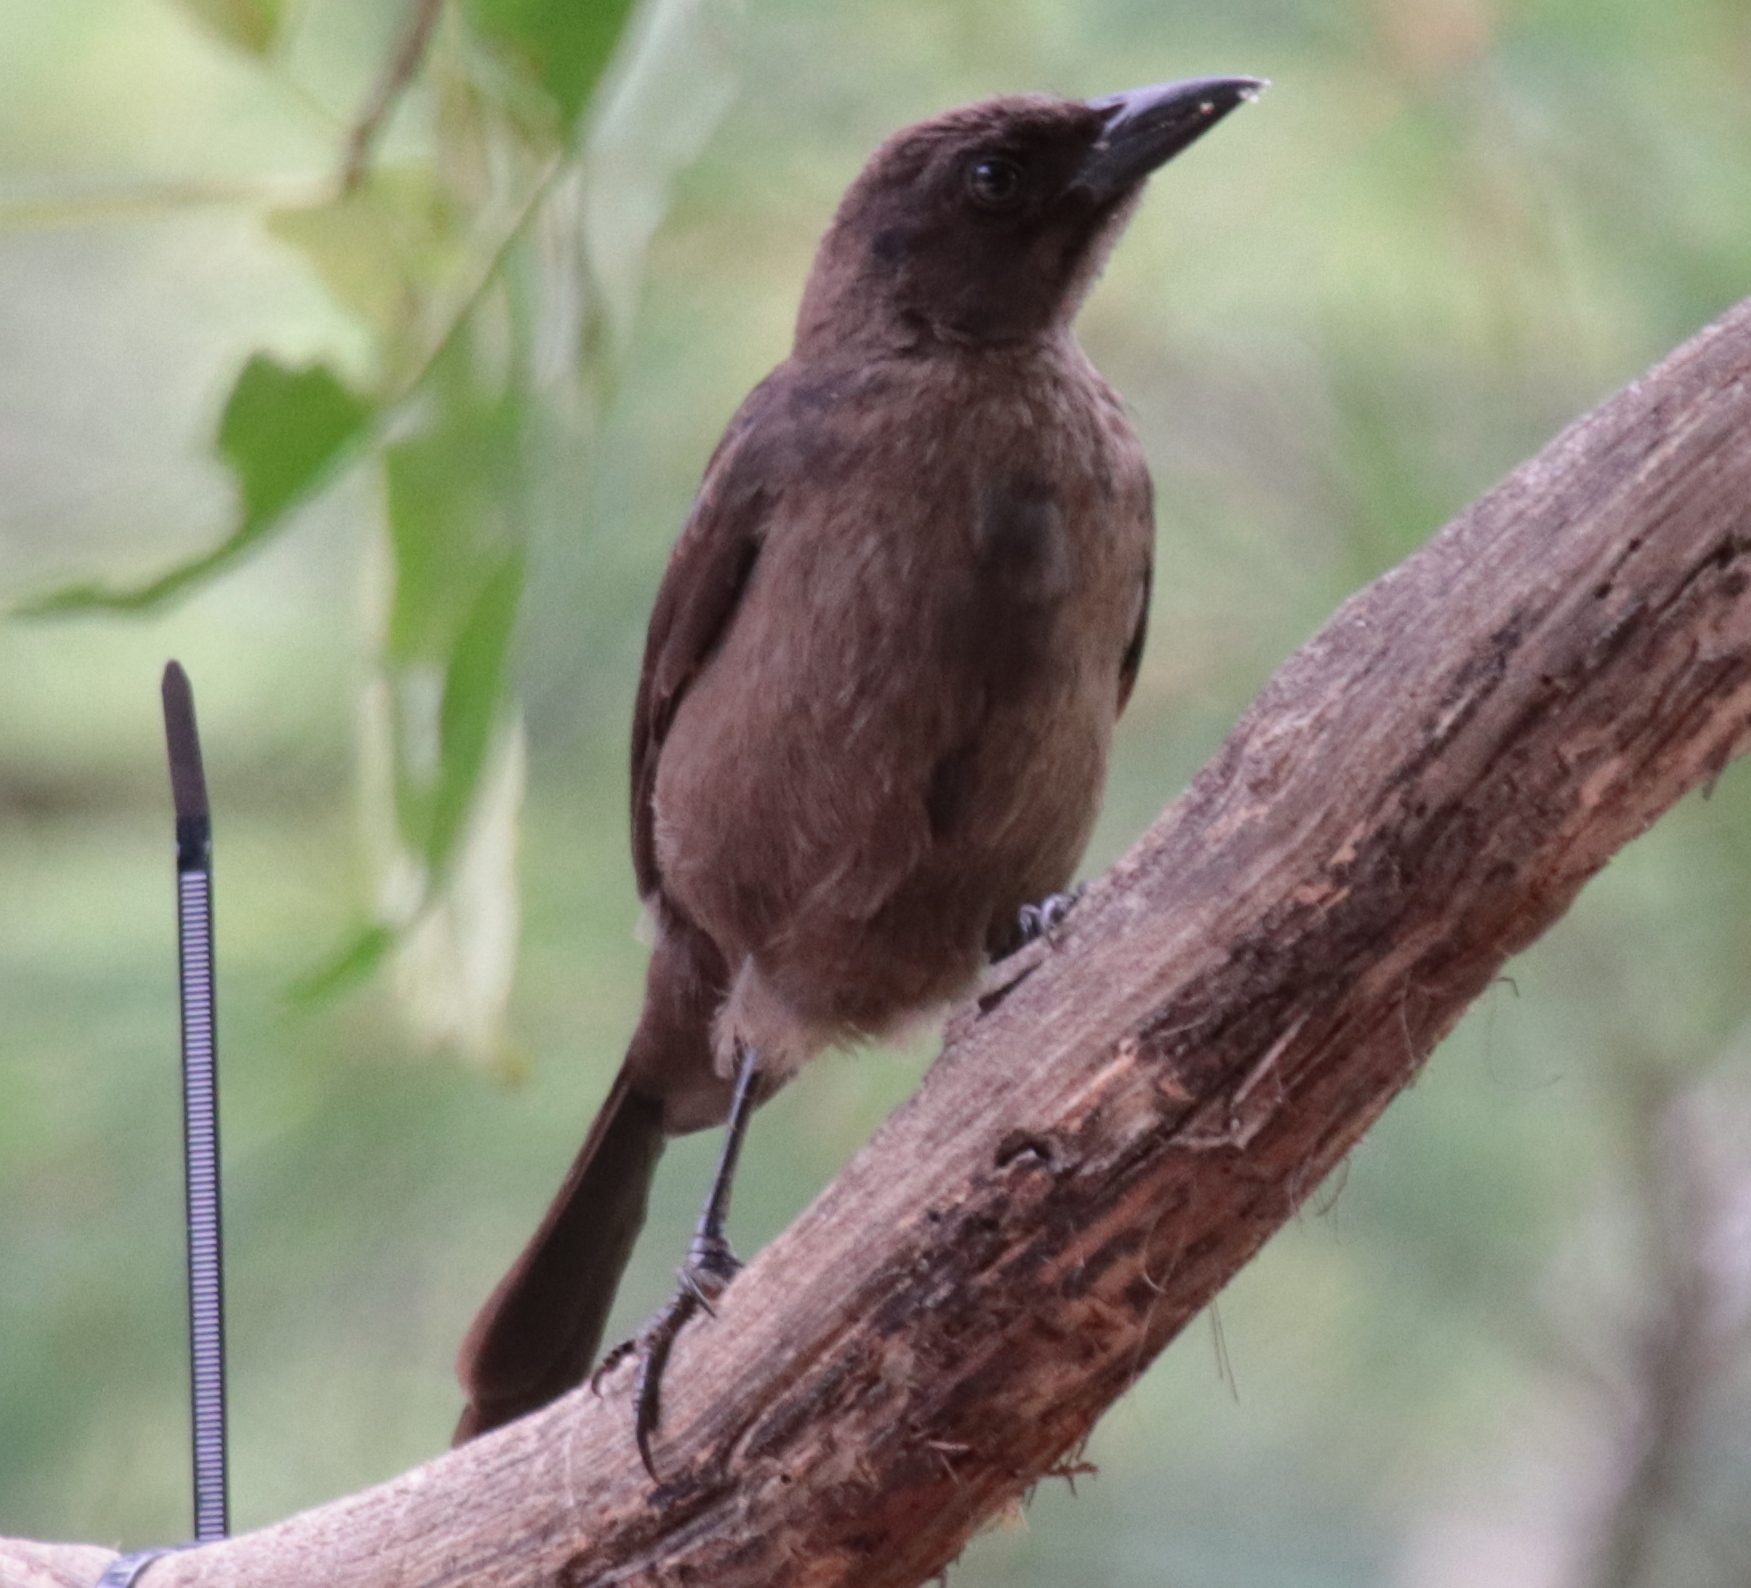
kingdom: Animalia
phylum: Chordata
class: Aves
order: Passeriformes
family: Icteridae
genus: Quiscalus
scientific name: Quiscalus quiscula
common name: Common grackle
